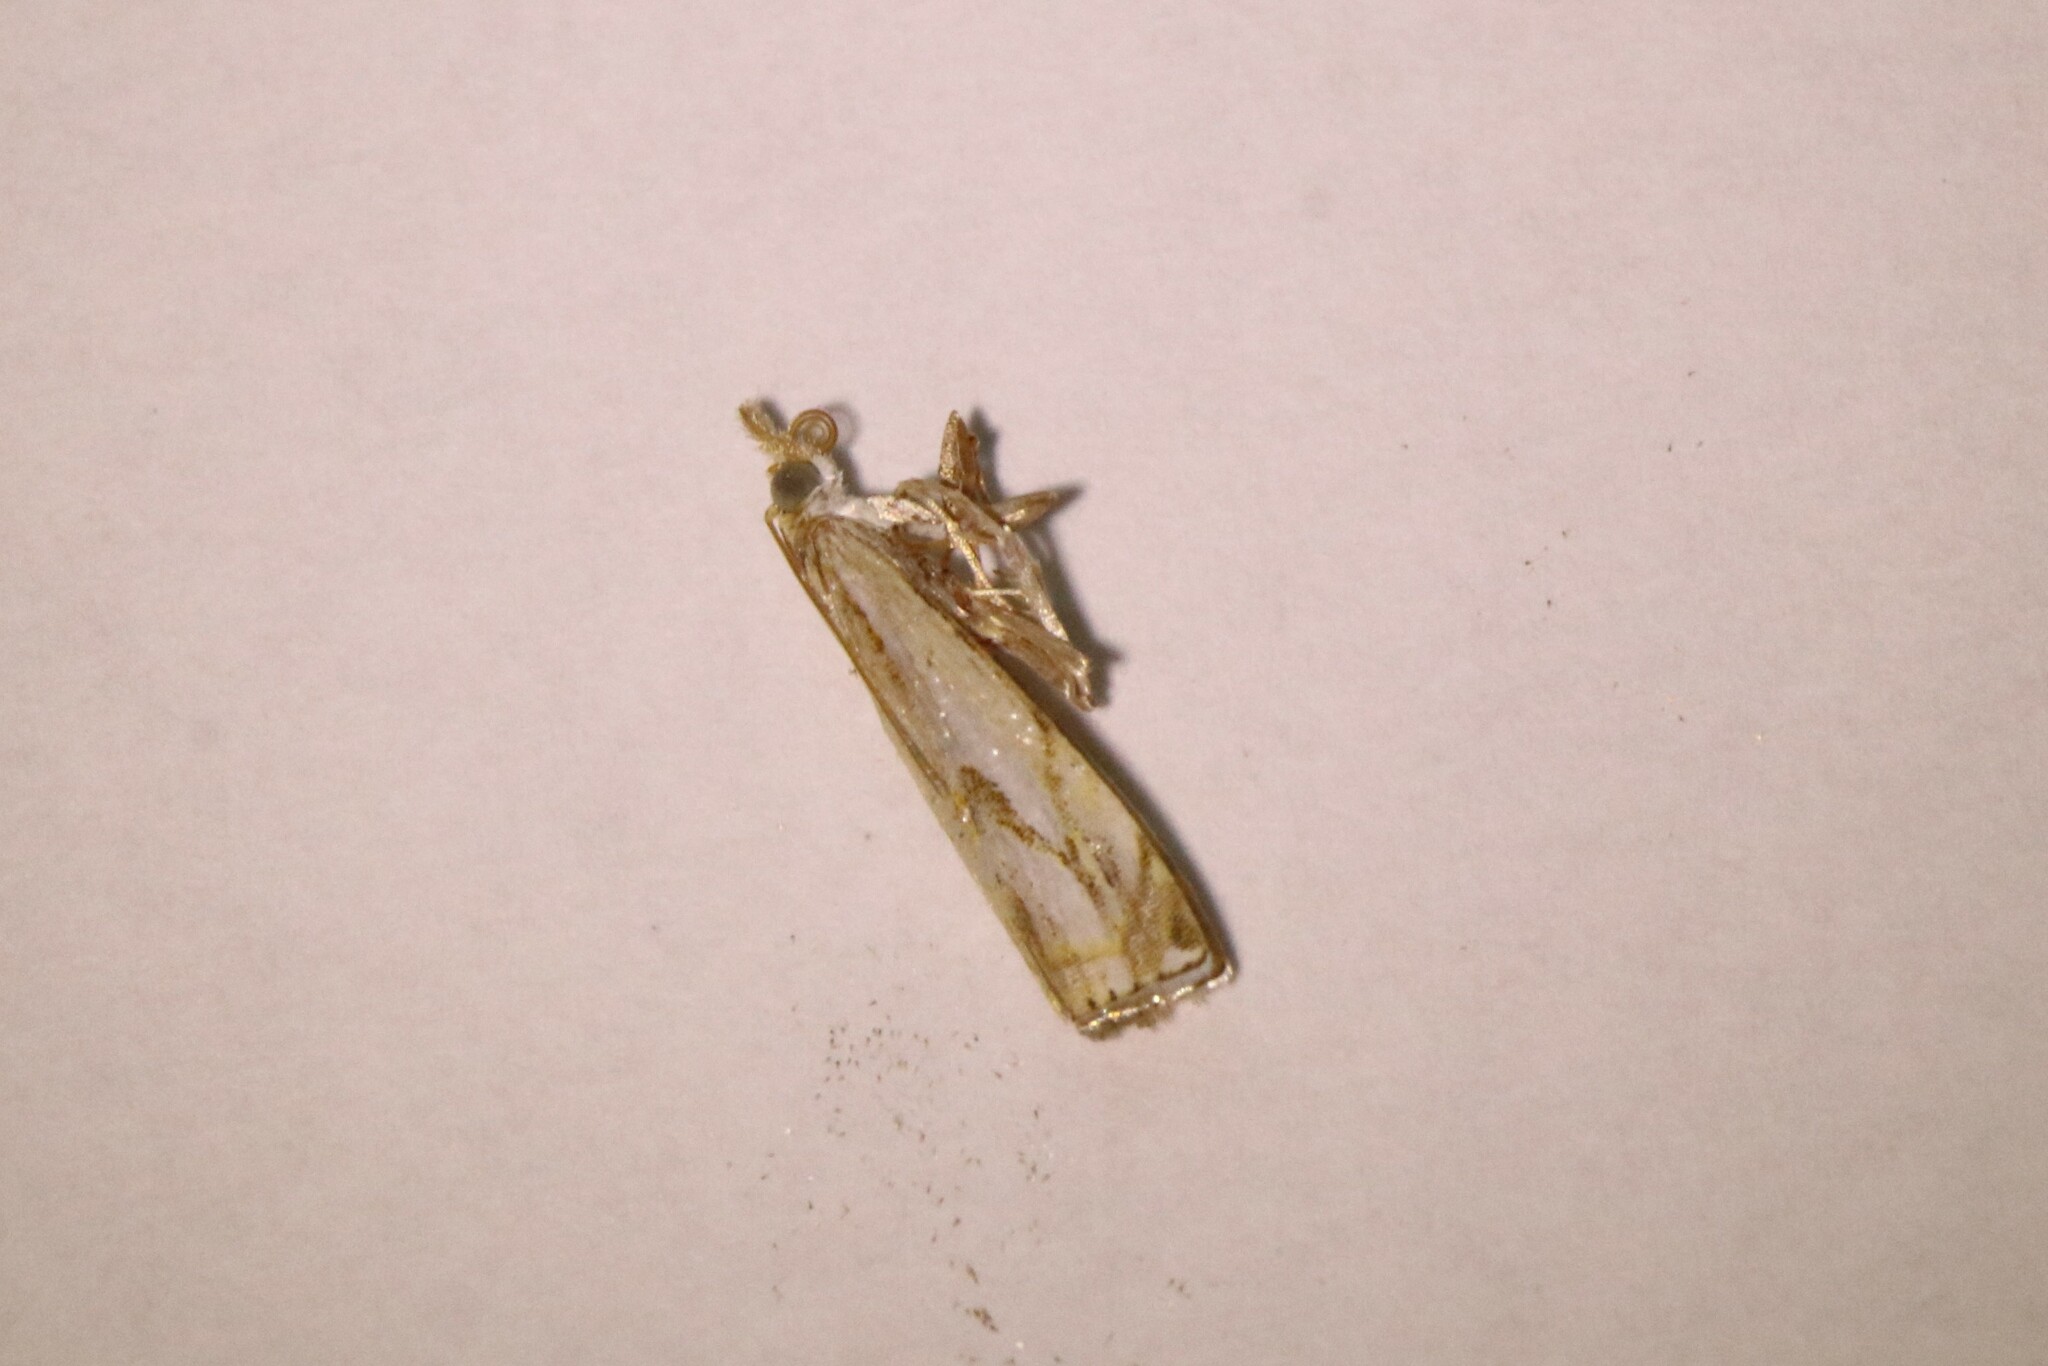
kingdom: Animalia
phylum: Arthropoda
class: Insecta
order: Lepidoptera
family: Crambidae
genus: Crambus
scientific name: Crambus agitatellus
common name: Double-banded grass-veneer
